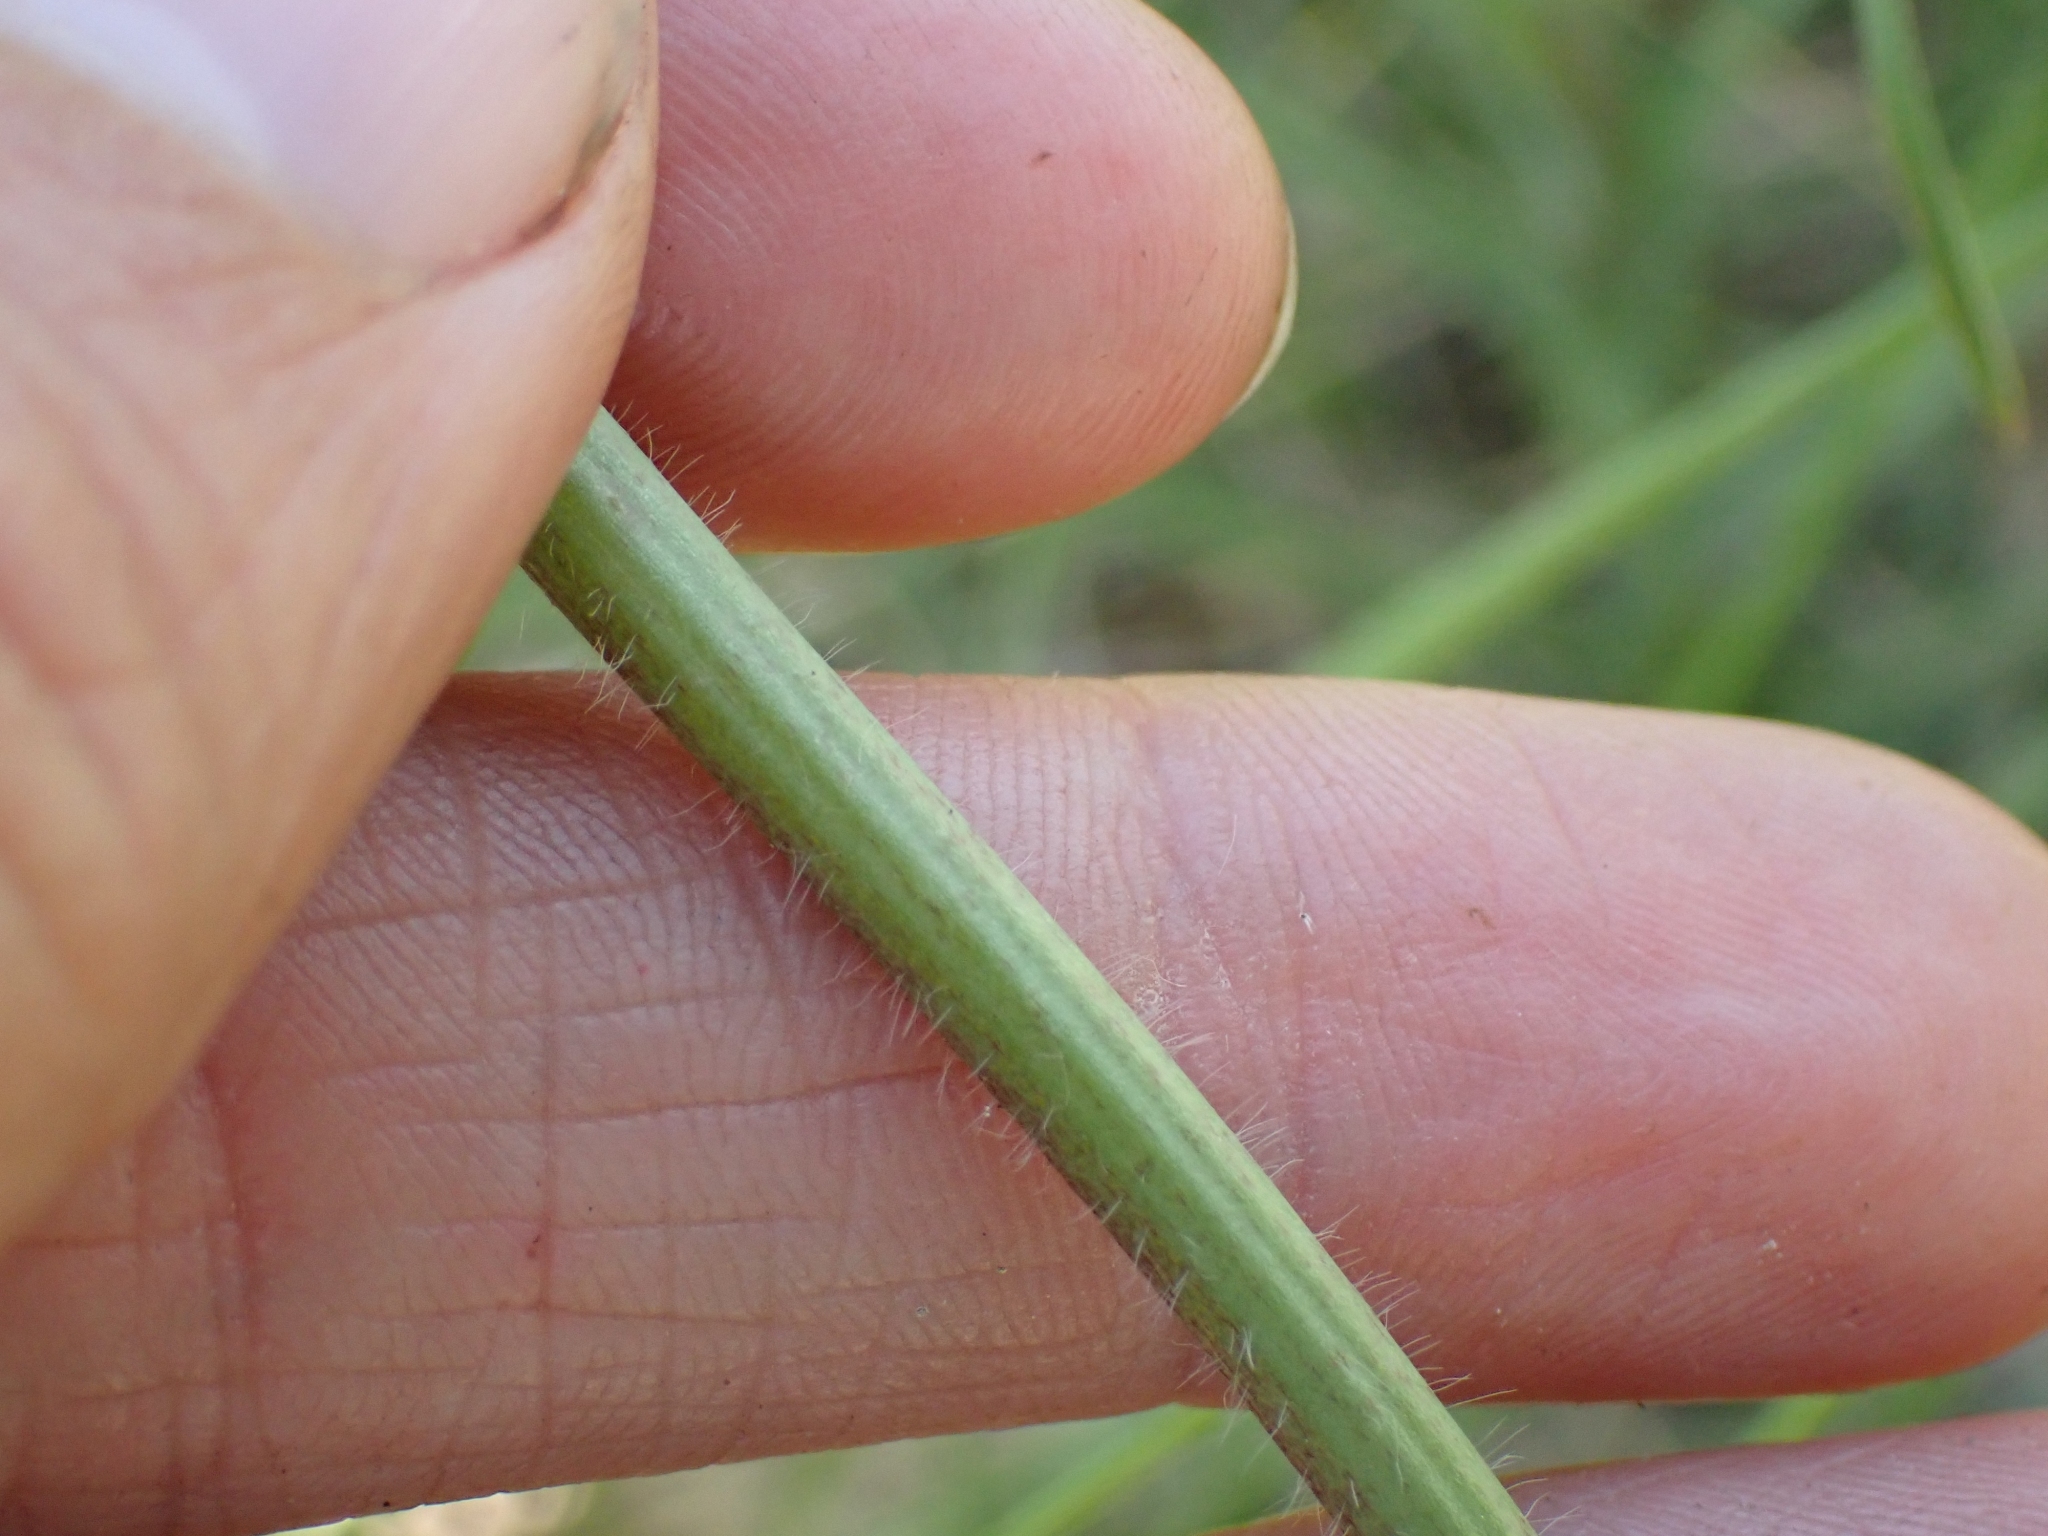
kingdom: Plantae
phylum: Tracheophyta
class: Magnoliopsida
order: Fabales
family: Fabaceae
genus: Trifolium
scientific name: Trifolium pratense
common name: Red clover
